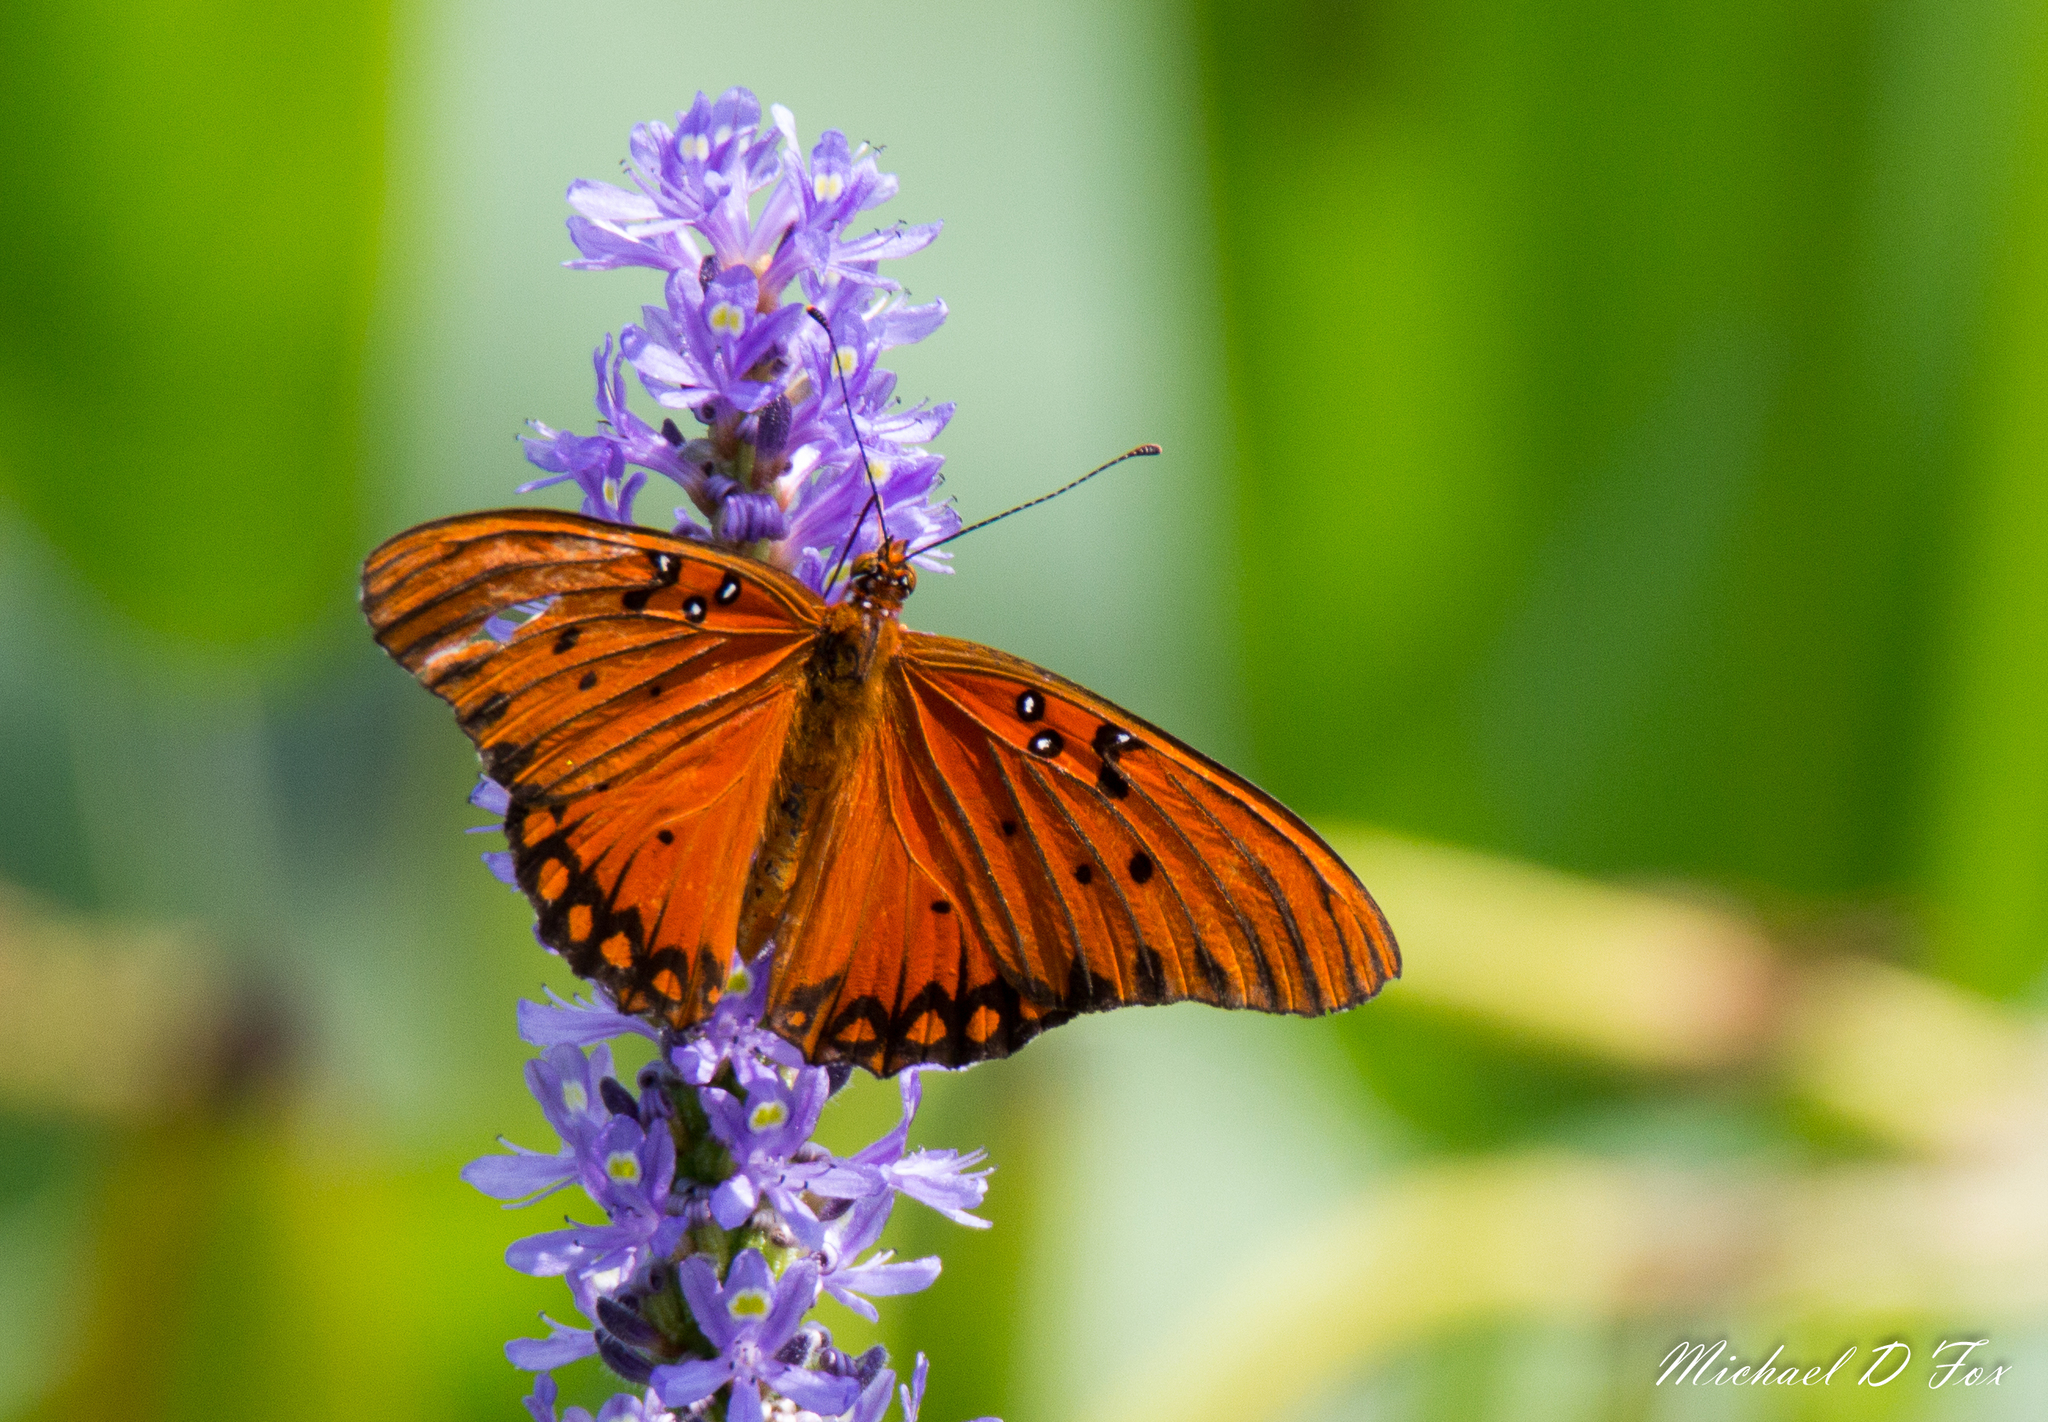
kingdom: Animalia
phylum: Arthropoda
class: Insecta
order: Lepidoptera
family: Nymphalidae
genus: Dione
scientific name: Dione vanillae
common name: Gulf fritillary
